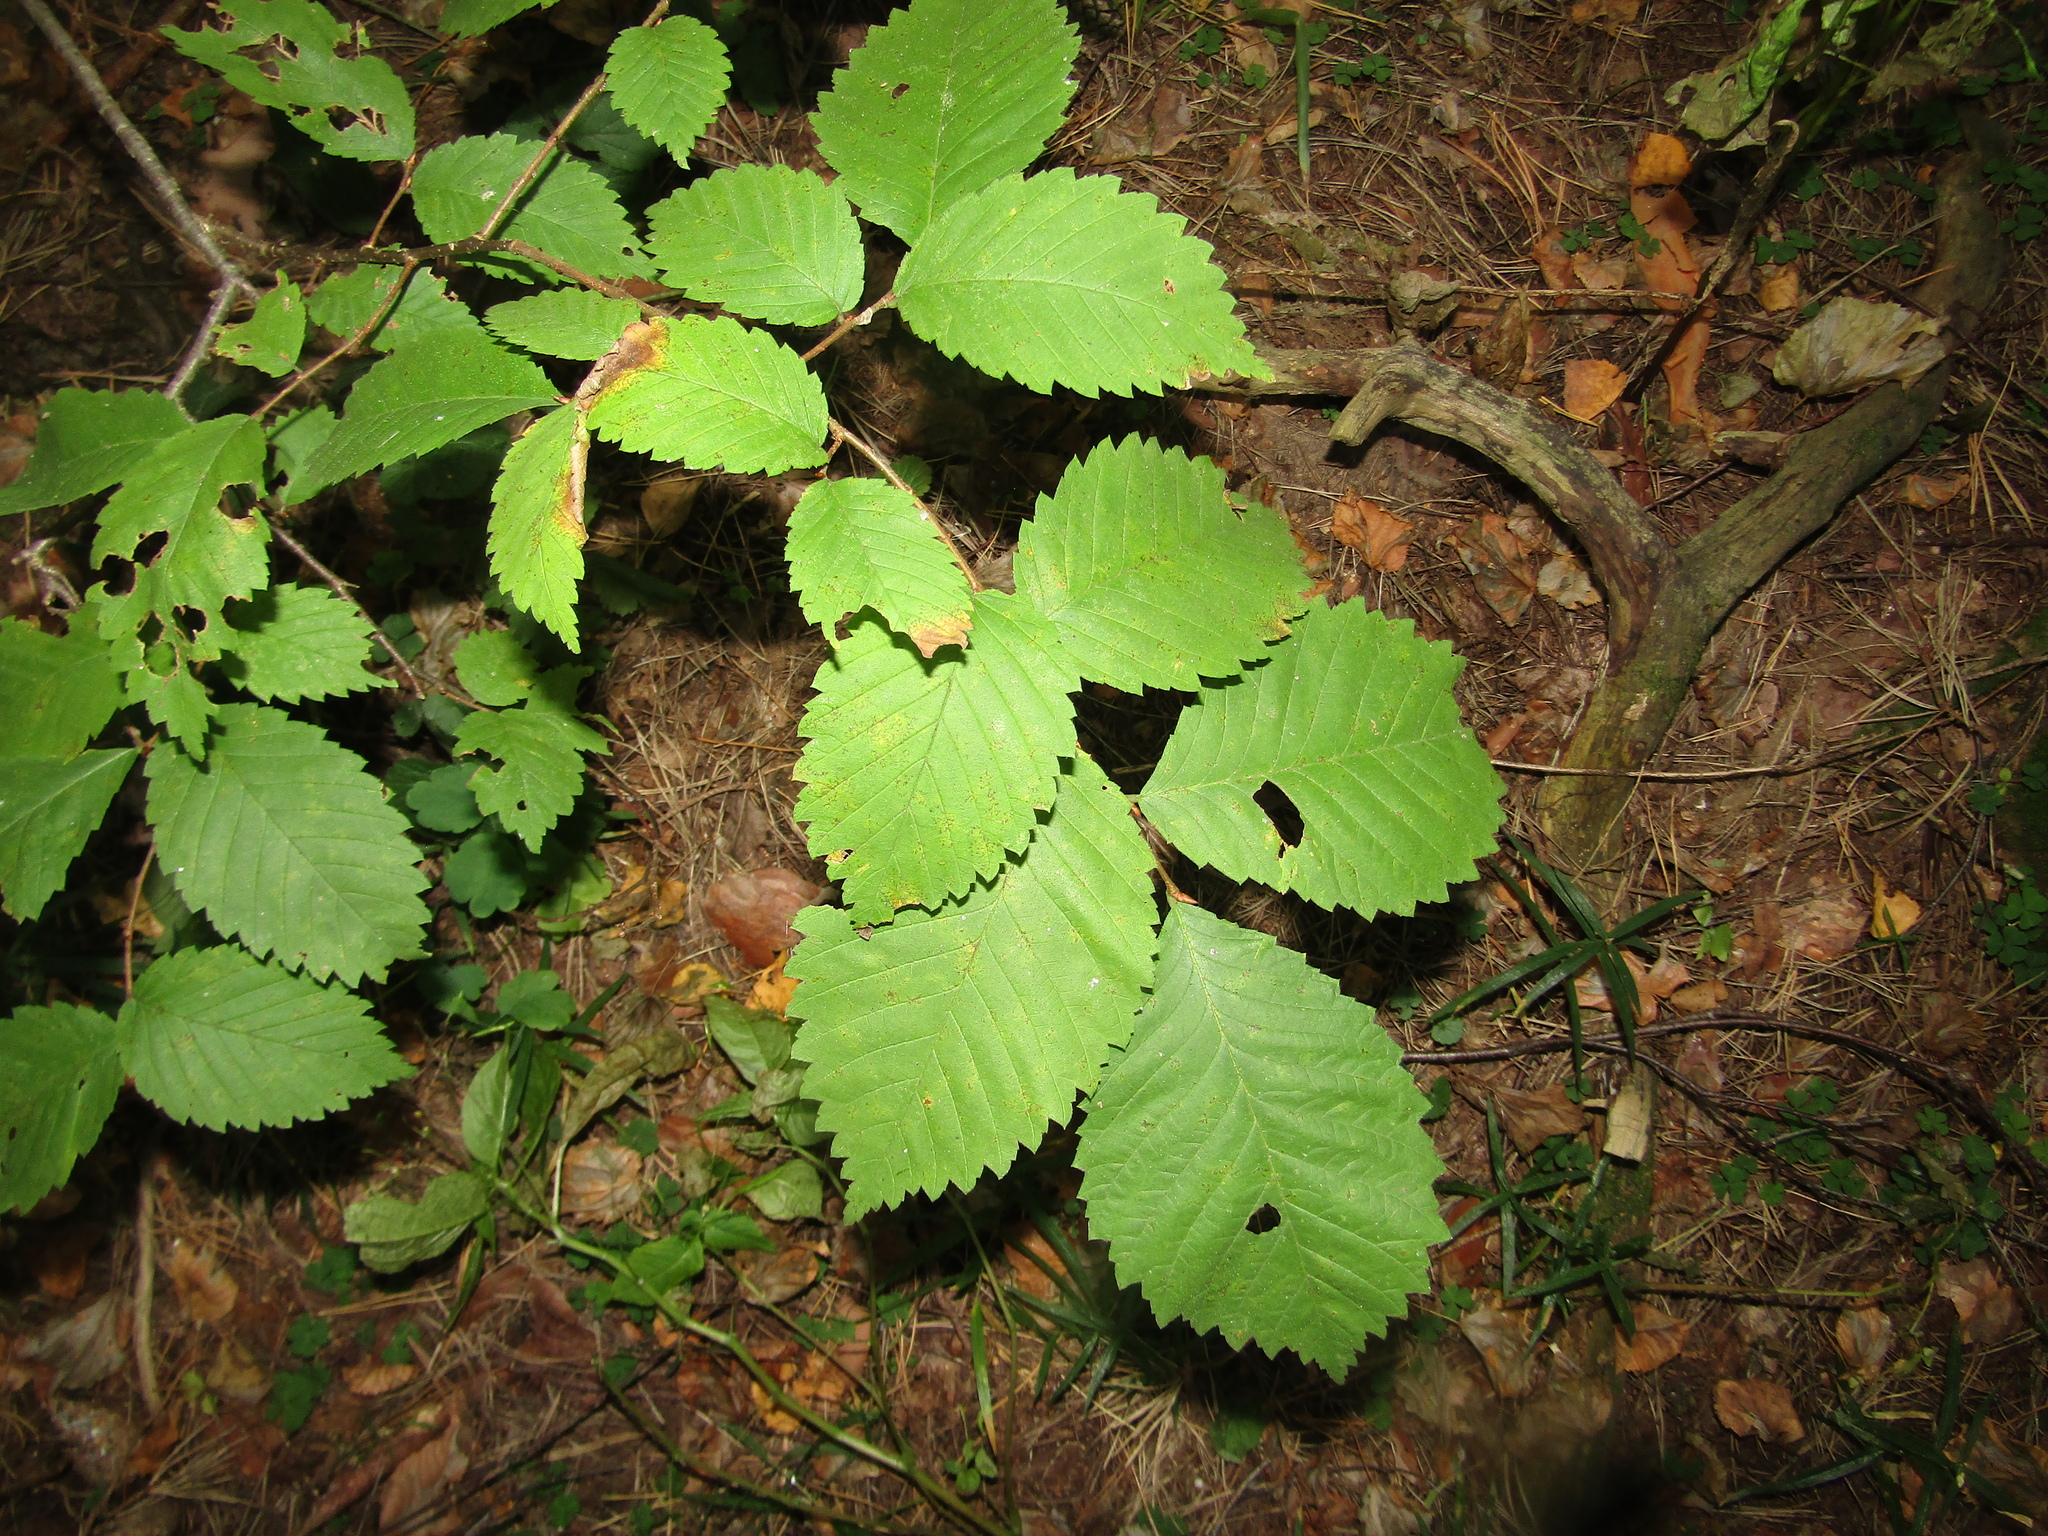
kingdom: Plantae
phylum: Tracheophyta
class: Magnoliopsida
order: Rosales
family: Ulmaceae
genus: Ulmus
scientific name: Ulmus laevis
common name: European white-elm
